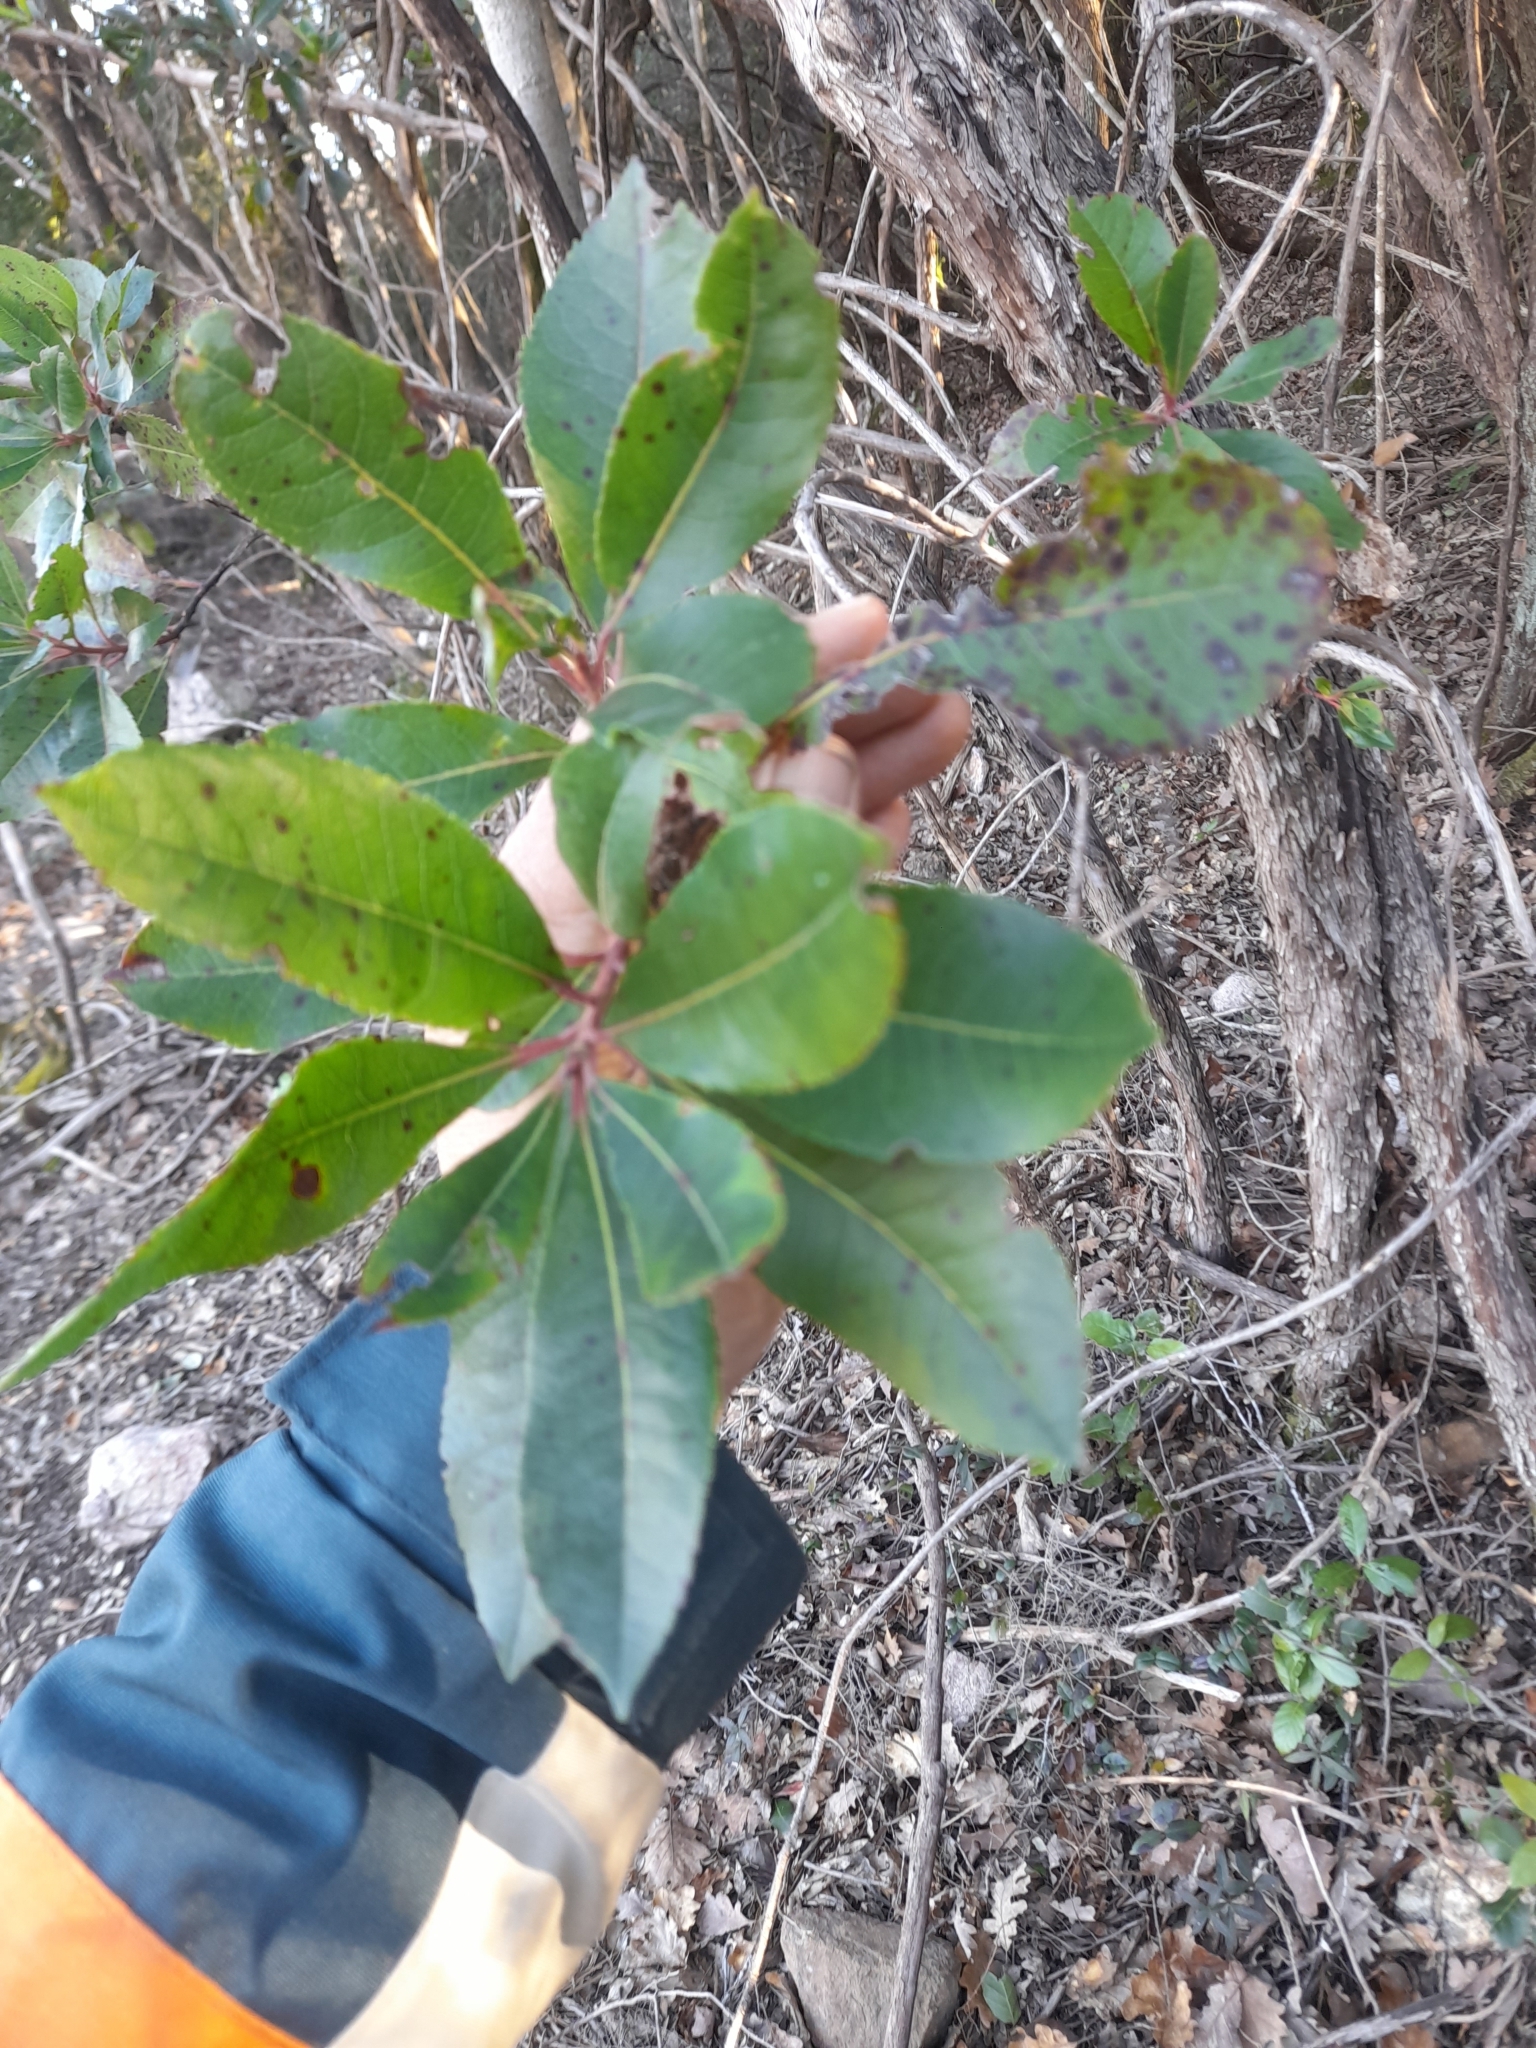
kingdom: Plantae
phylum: Tracheophyta
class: Magnoliopsida
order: Ericales
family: Ericaceae
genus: Arbutus
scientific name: Arbutus unedo
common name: Strawberry-tree
